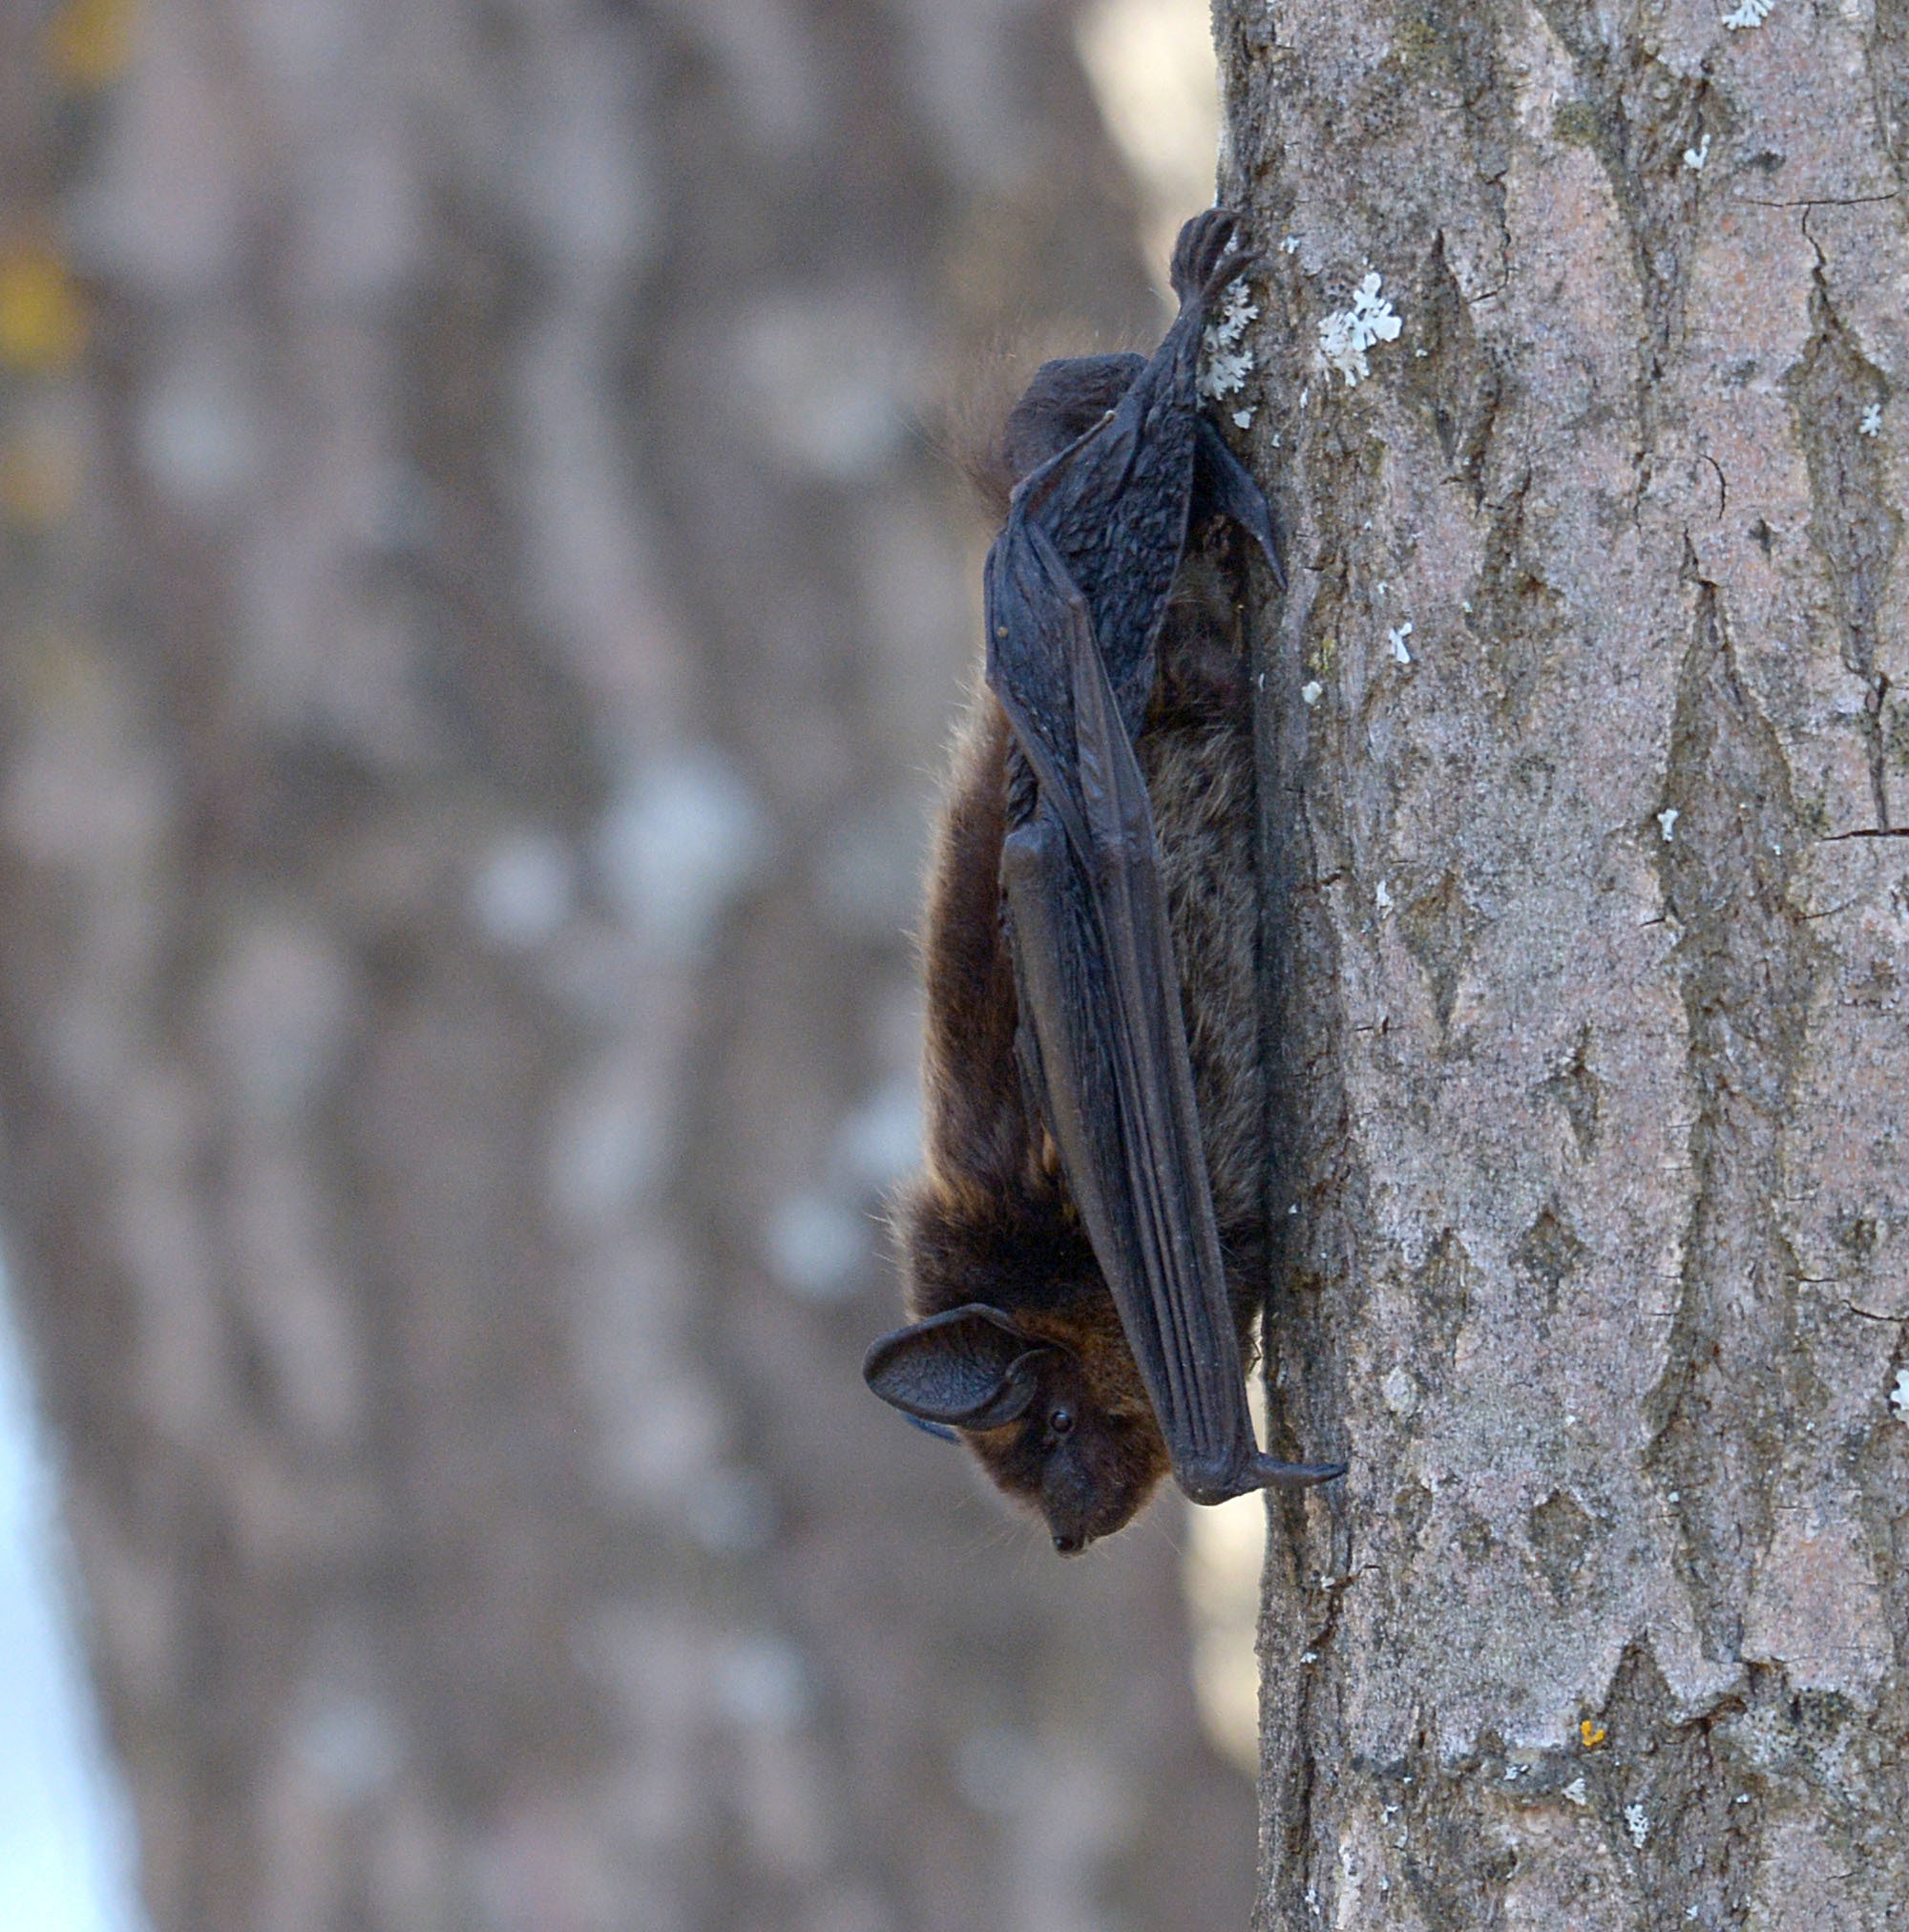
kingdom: Animalia
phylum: Chordata
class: Mammalia
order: Chiroptera
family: Vespertilionidae
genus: Eptesicus
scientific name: Eptesicus nilssonii
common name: Northern bat
